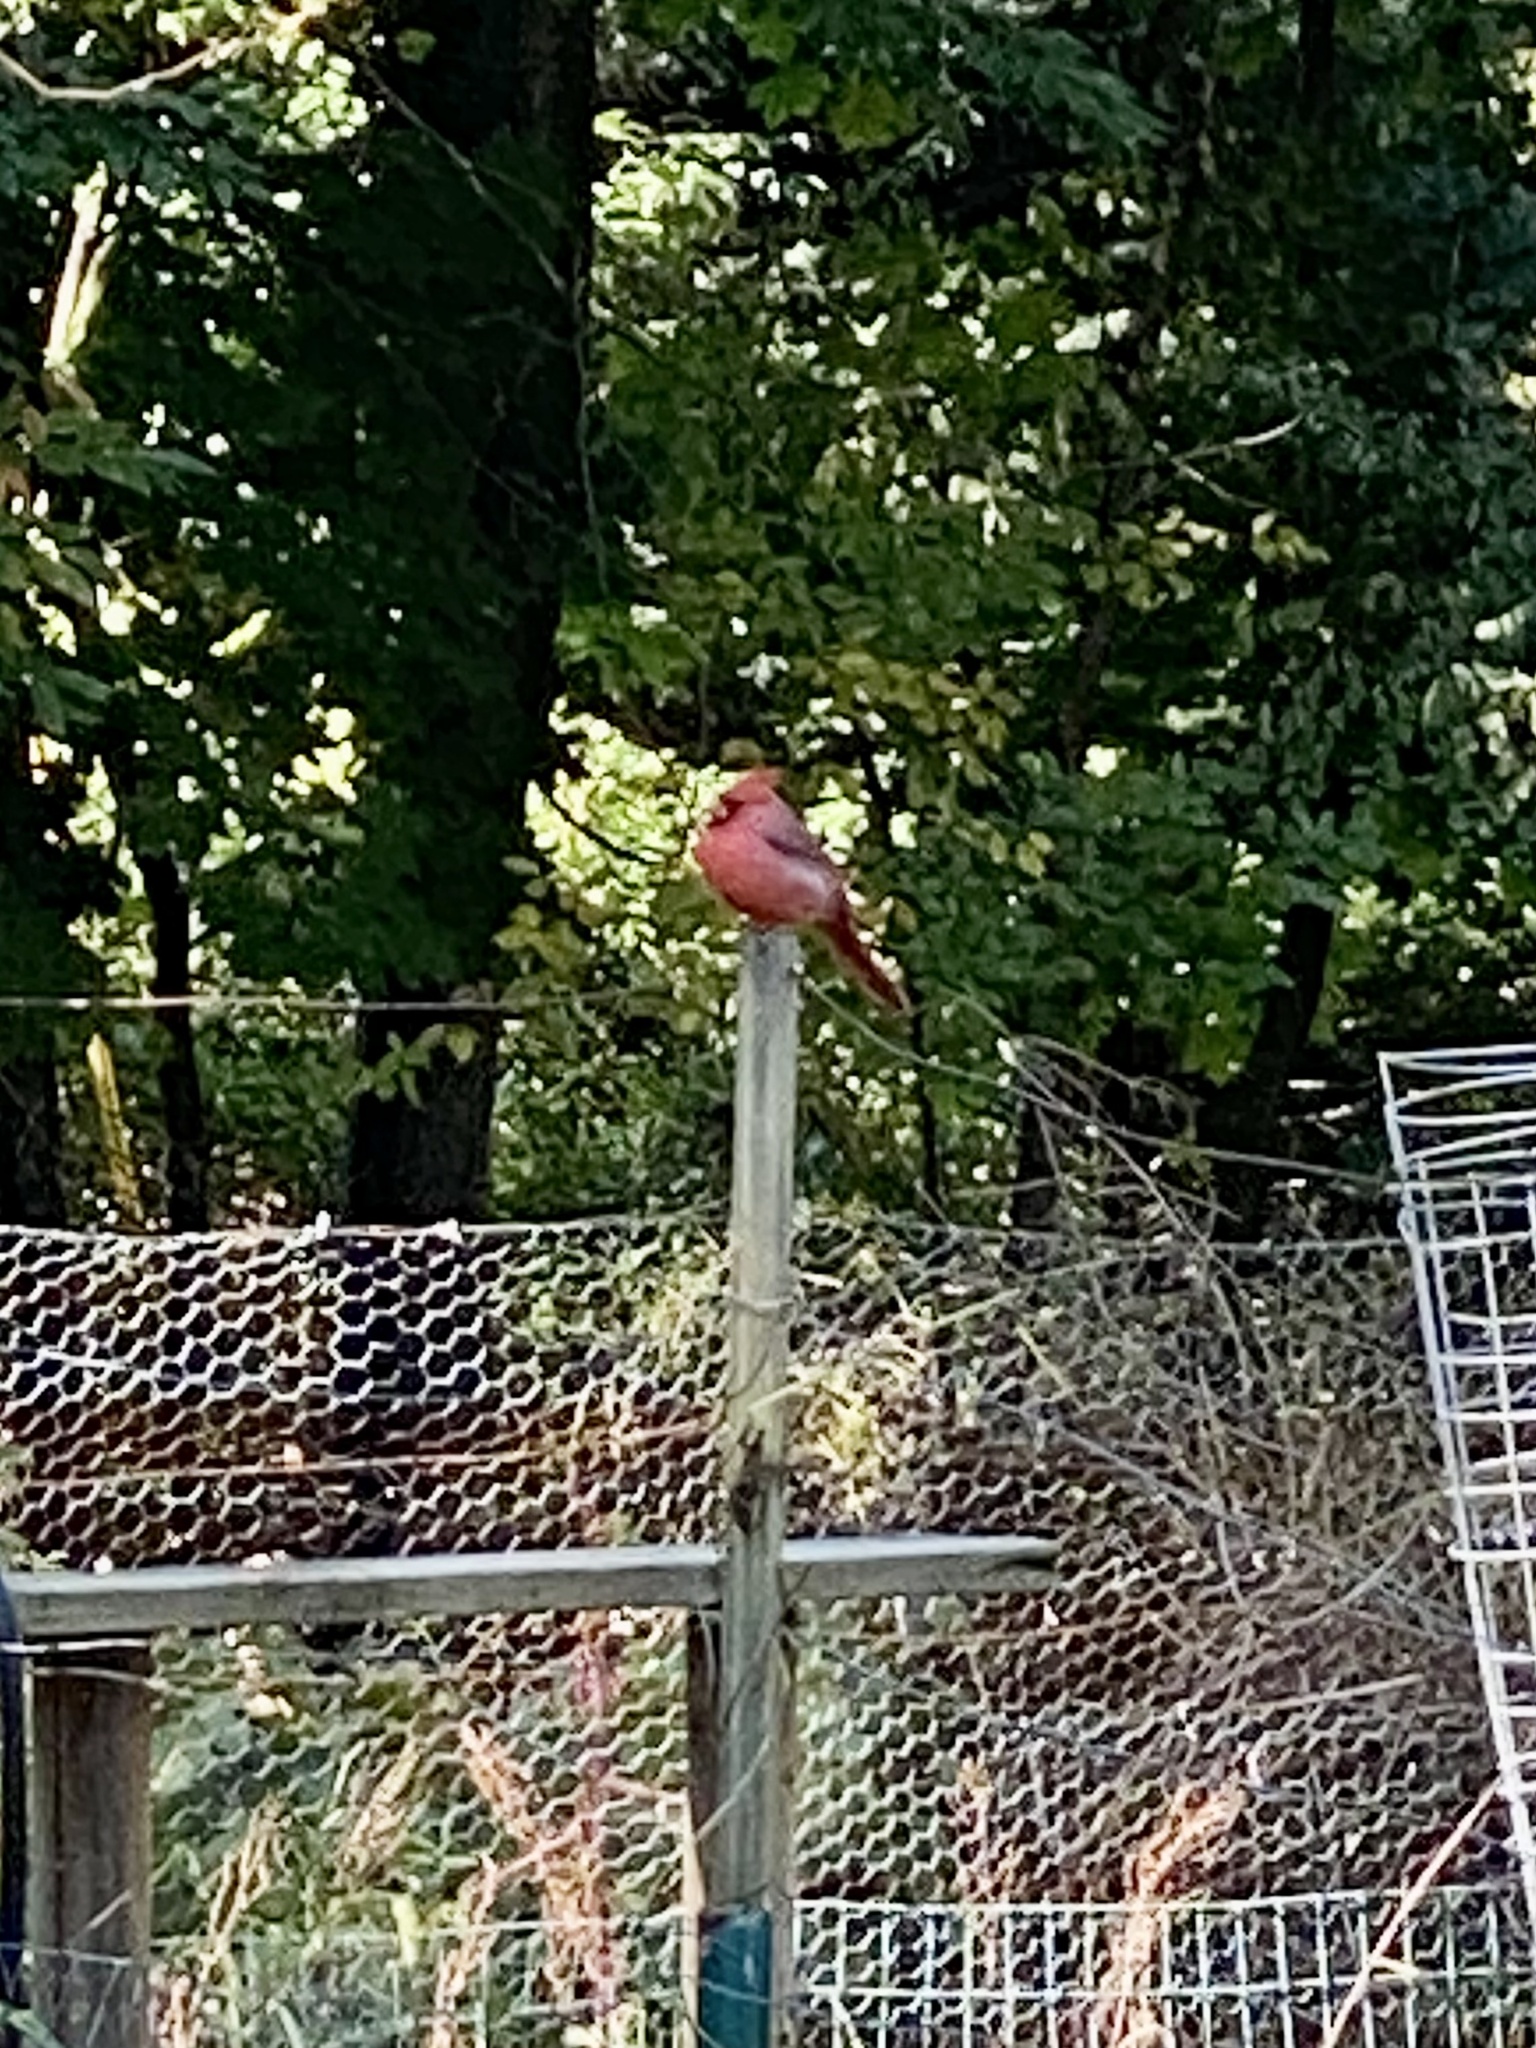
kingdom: Animalia
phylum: Chordata
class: Aves
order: Passeriformes
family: Cardinalidae
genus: Cardinalis
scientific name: Cardinalis cardinalis
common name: Northern cardinal
